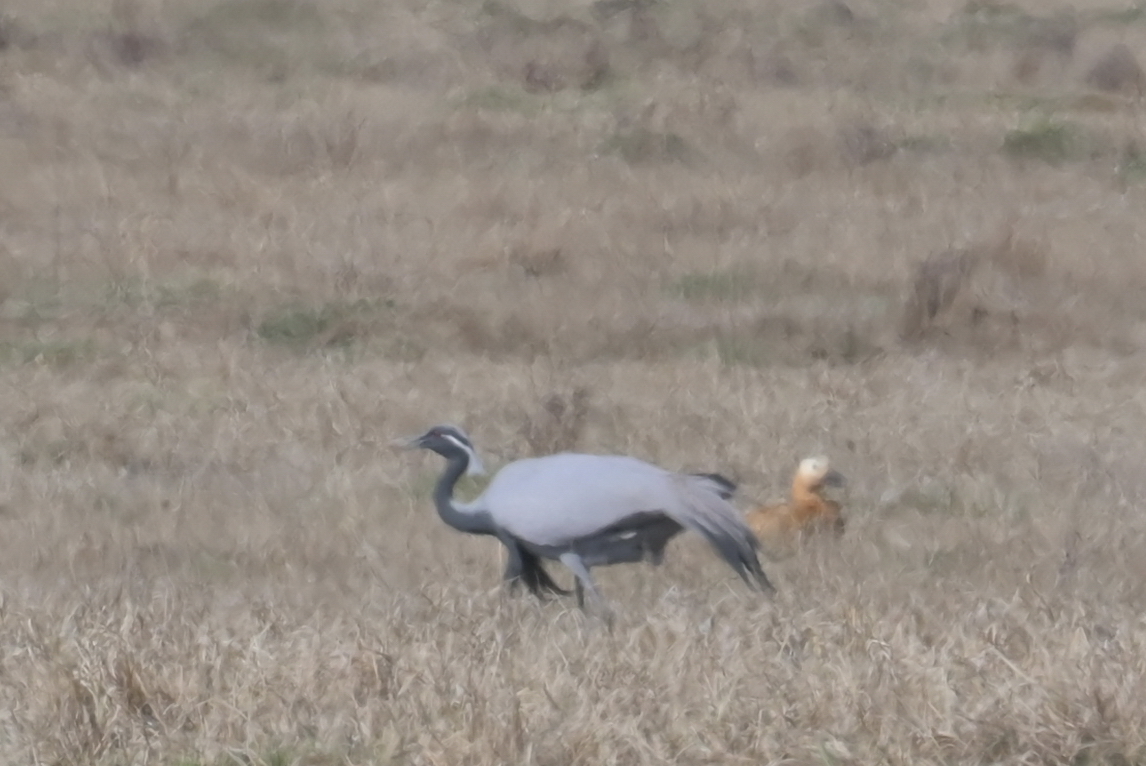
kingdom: Animalia
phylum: Chordata
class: Aves
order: Gruiformes
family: Gruidae
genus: Anthropoides
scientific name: Anthropoides virgo
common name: Demoiselle crane
